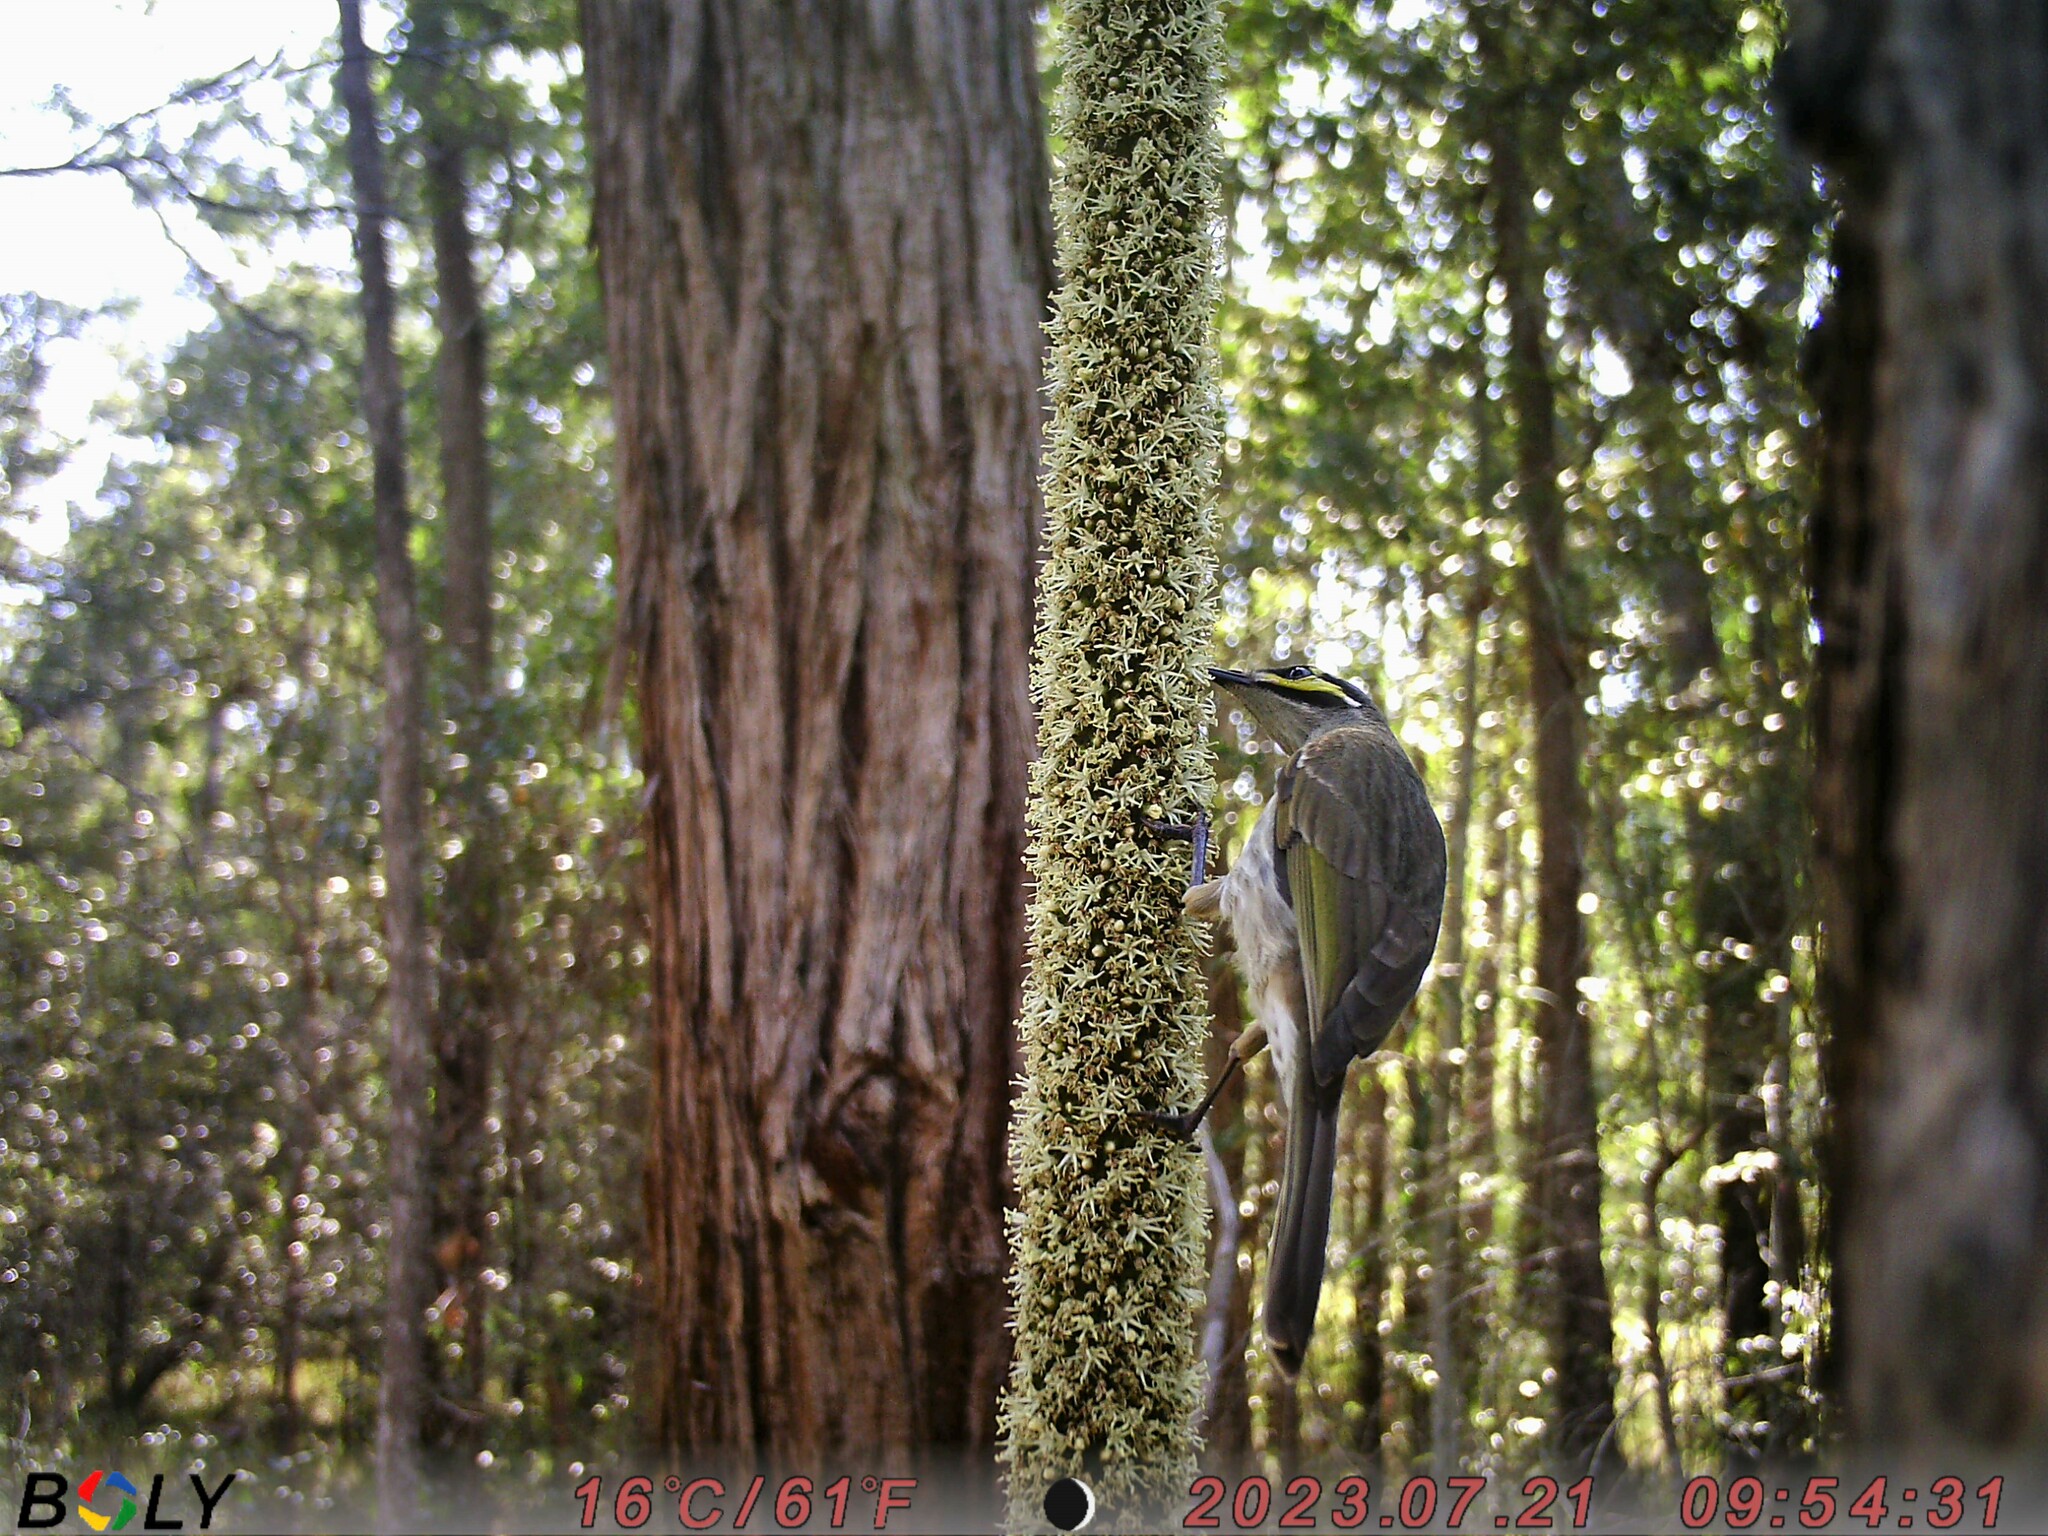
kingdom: Animalia
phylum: Chordata
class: Aves
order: Passeriformes
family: Meliphagidae
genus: Caligavis
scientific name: Caligavis chrysops
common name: Yellow-faced honeyeater
